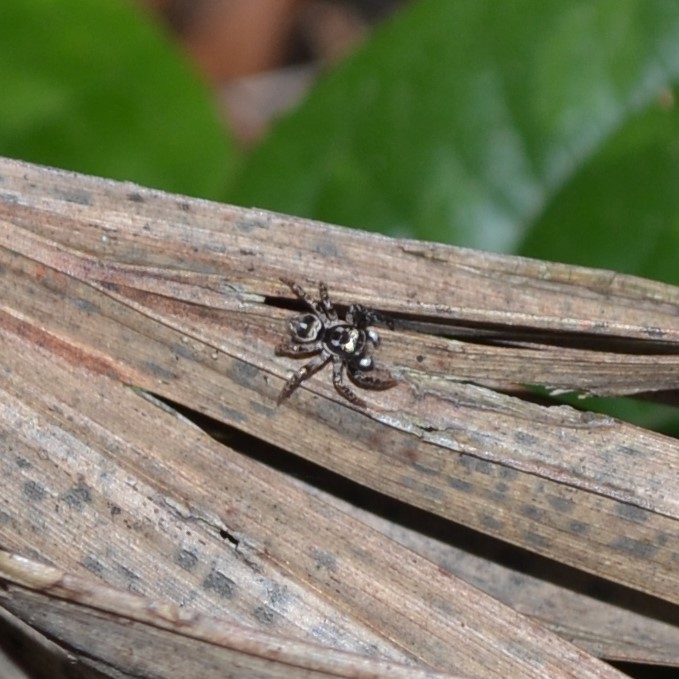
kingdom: Animalia
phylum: Arthropoda
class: Arachnida
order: Araneae
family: Salticidae
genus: Anasaitis
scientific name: Anasaitis canosa
